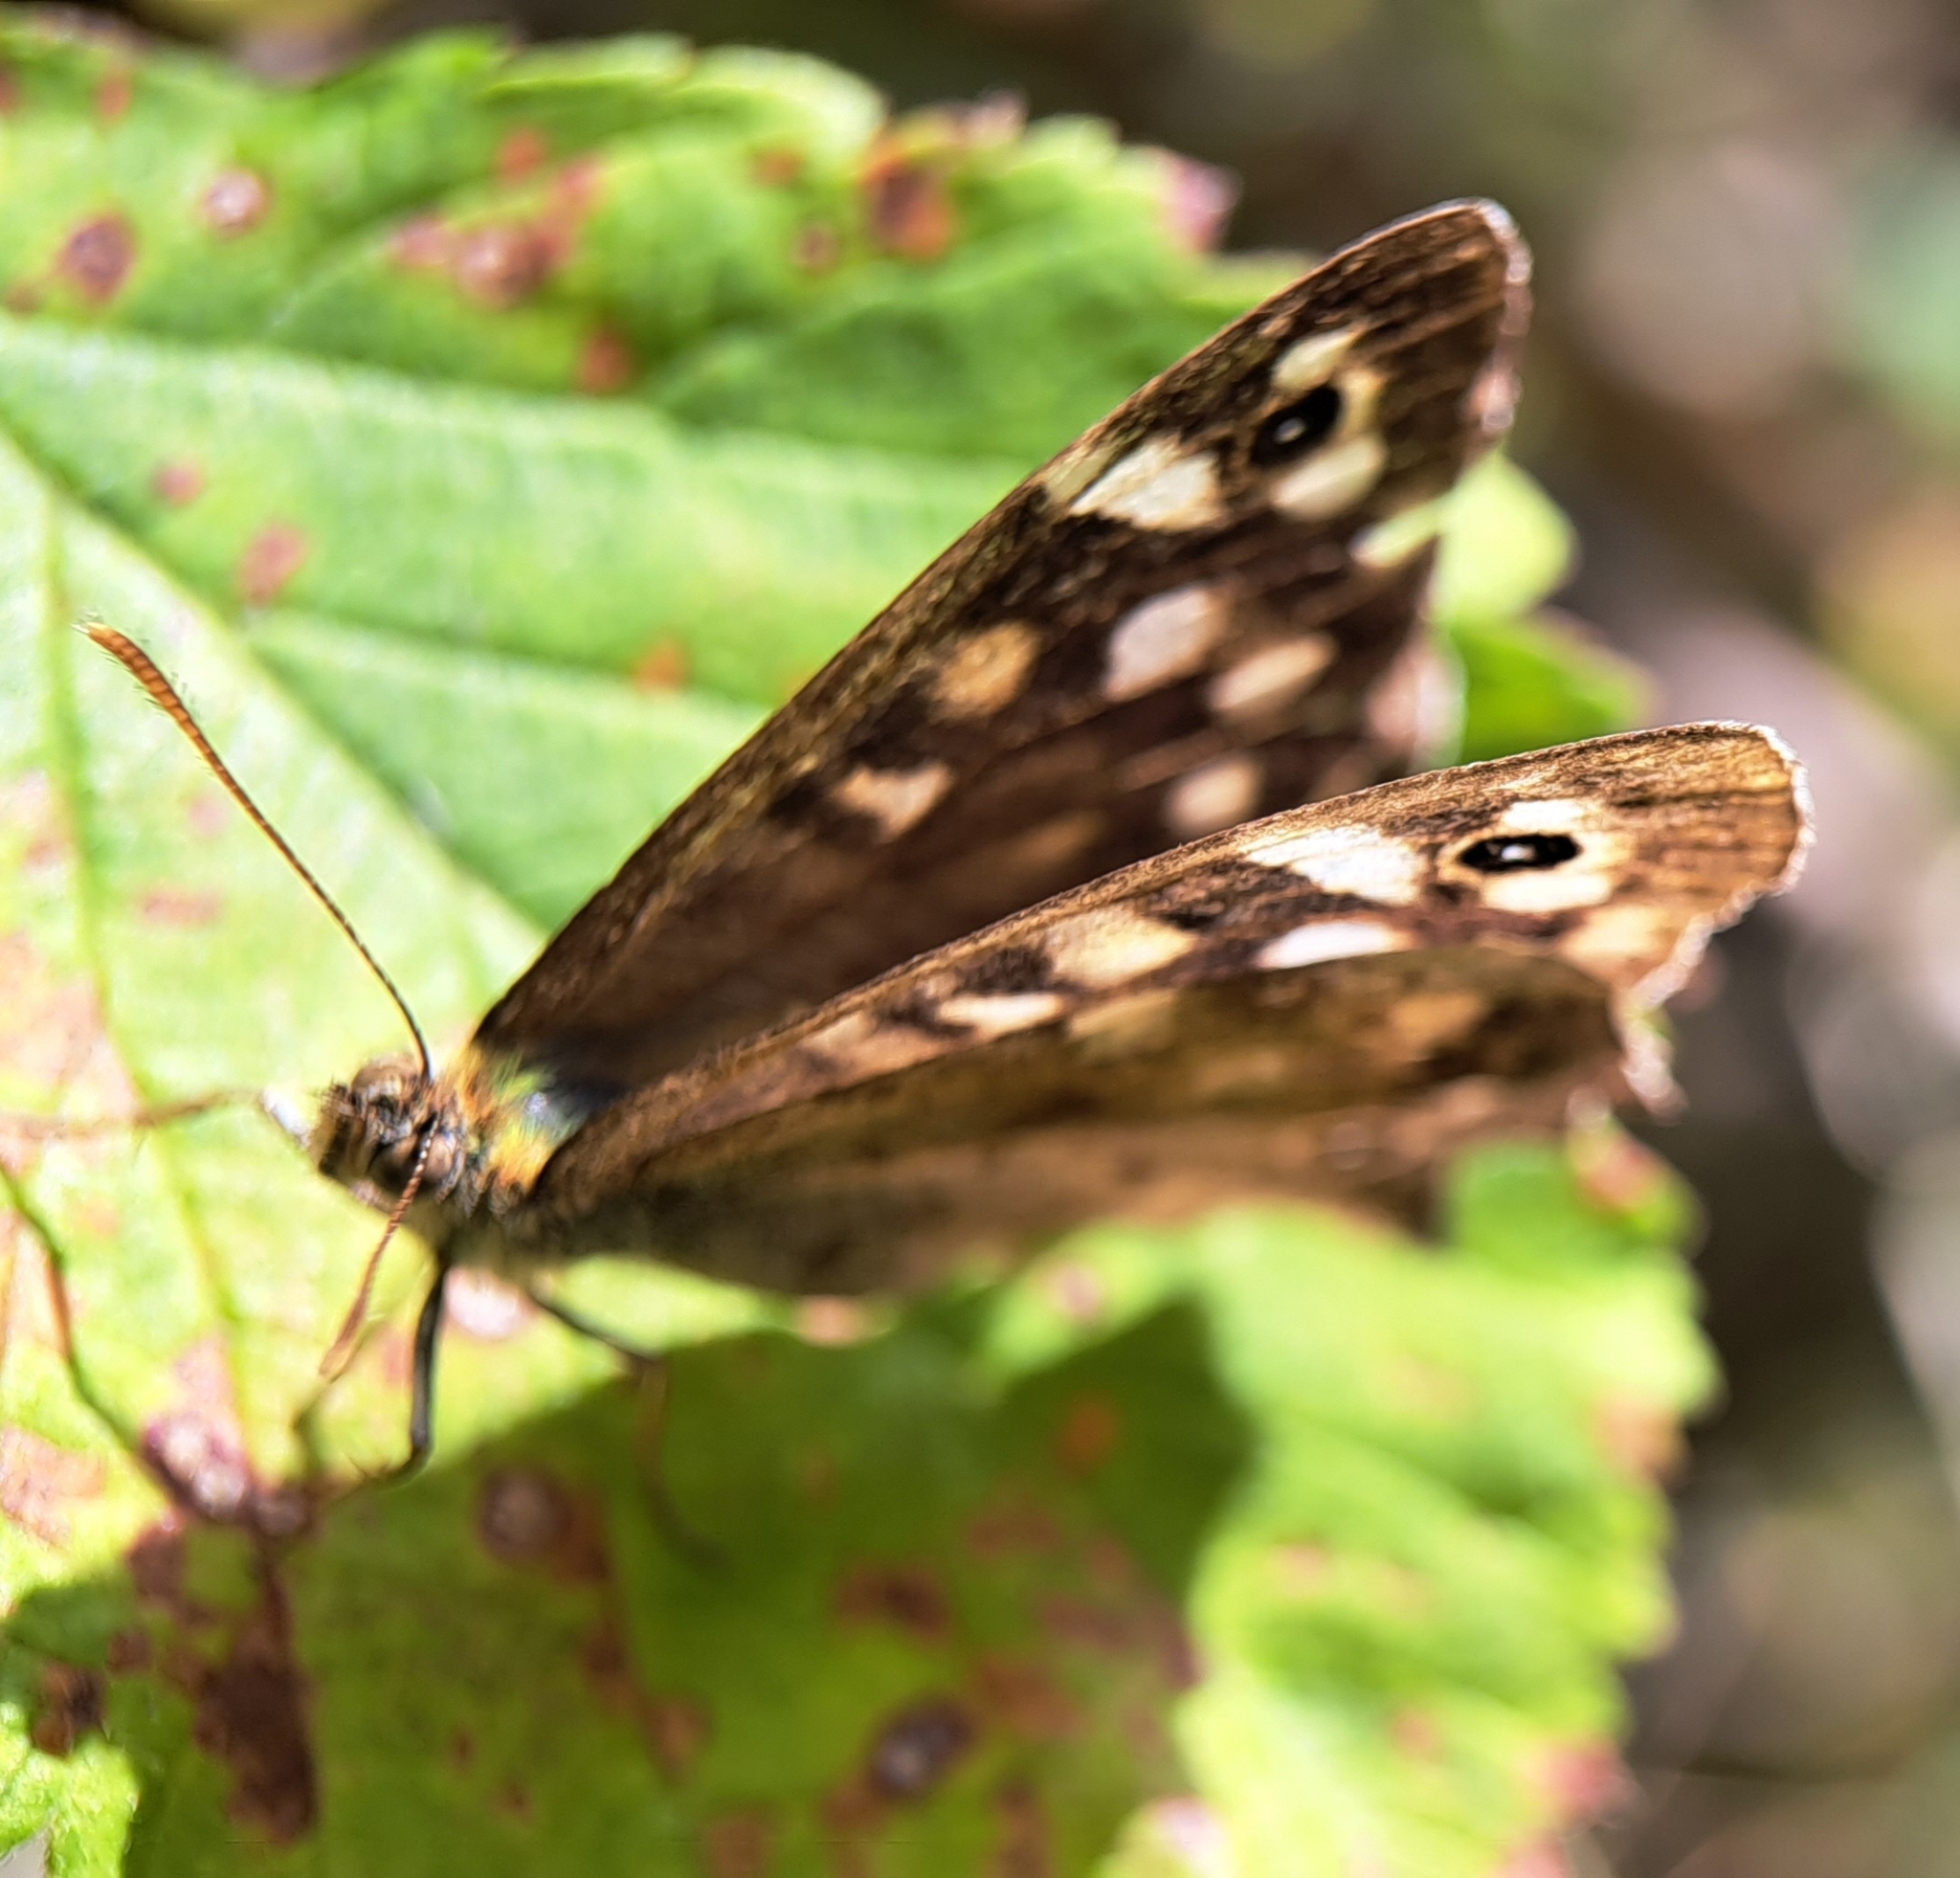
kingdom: Animalia
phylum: Arthropoda
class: Insecta
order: Lepidoptera
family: Nymphalidae
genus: Pararge
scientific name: Pararge aegeria
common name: Speckled wood
